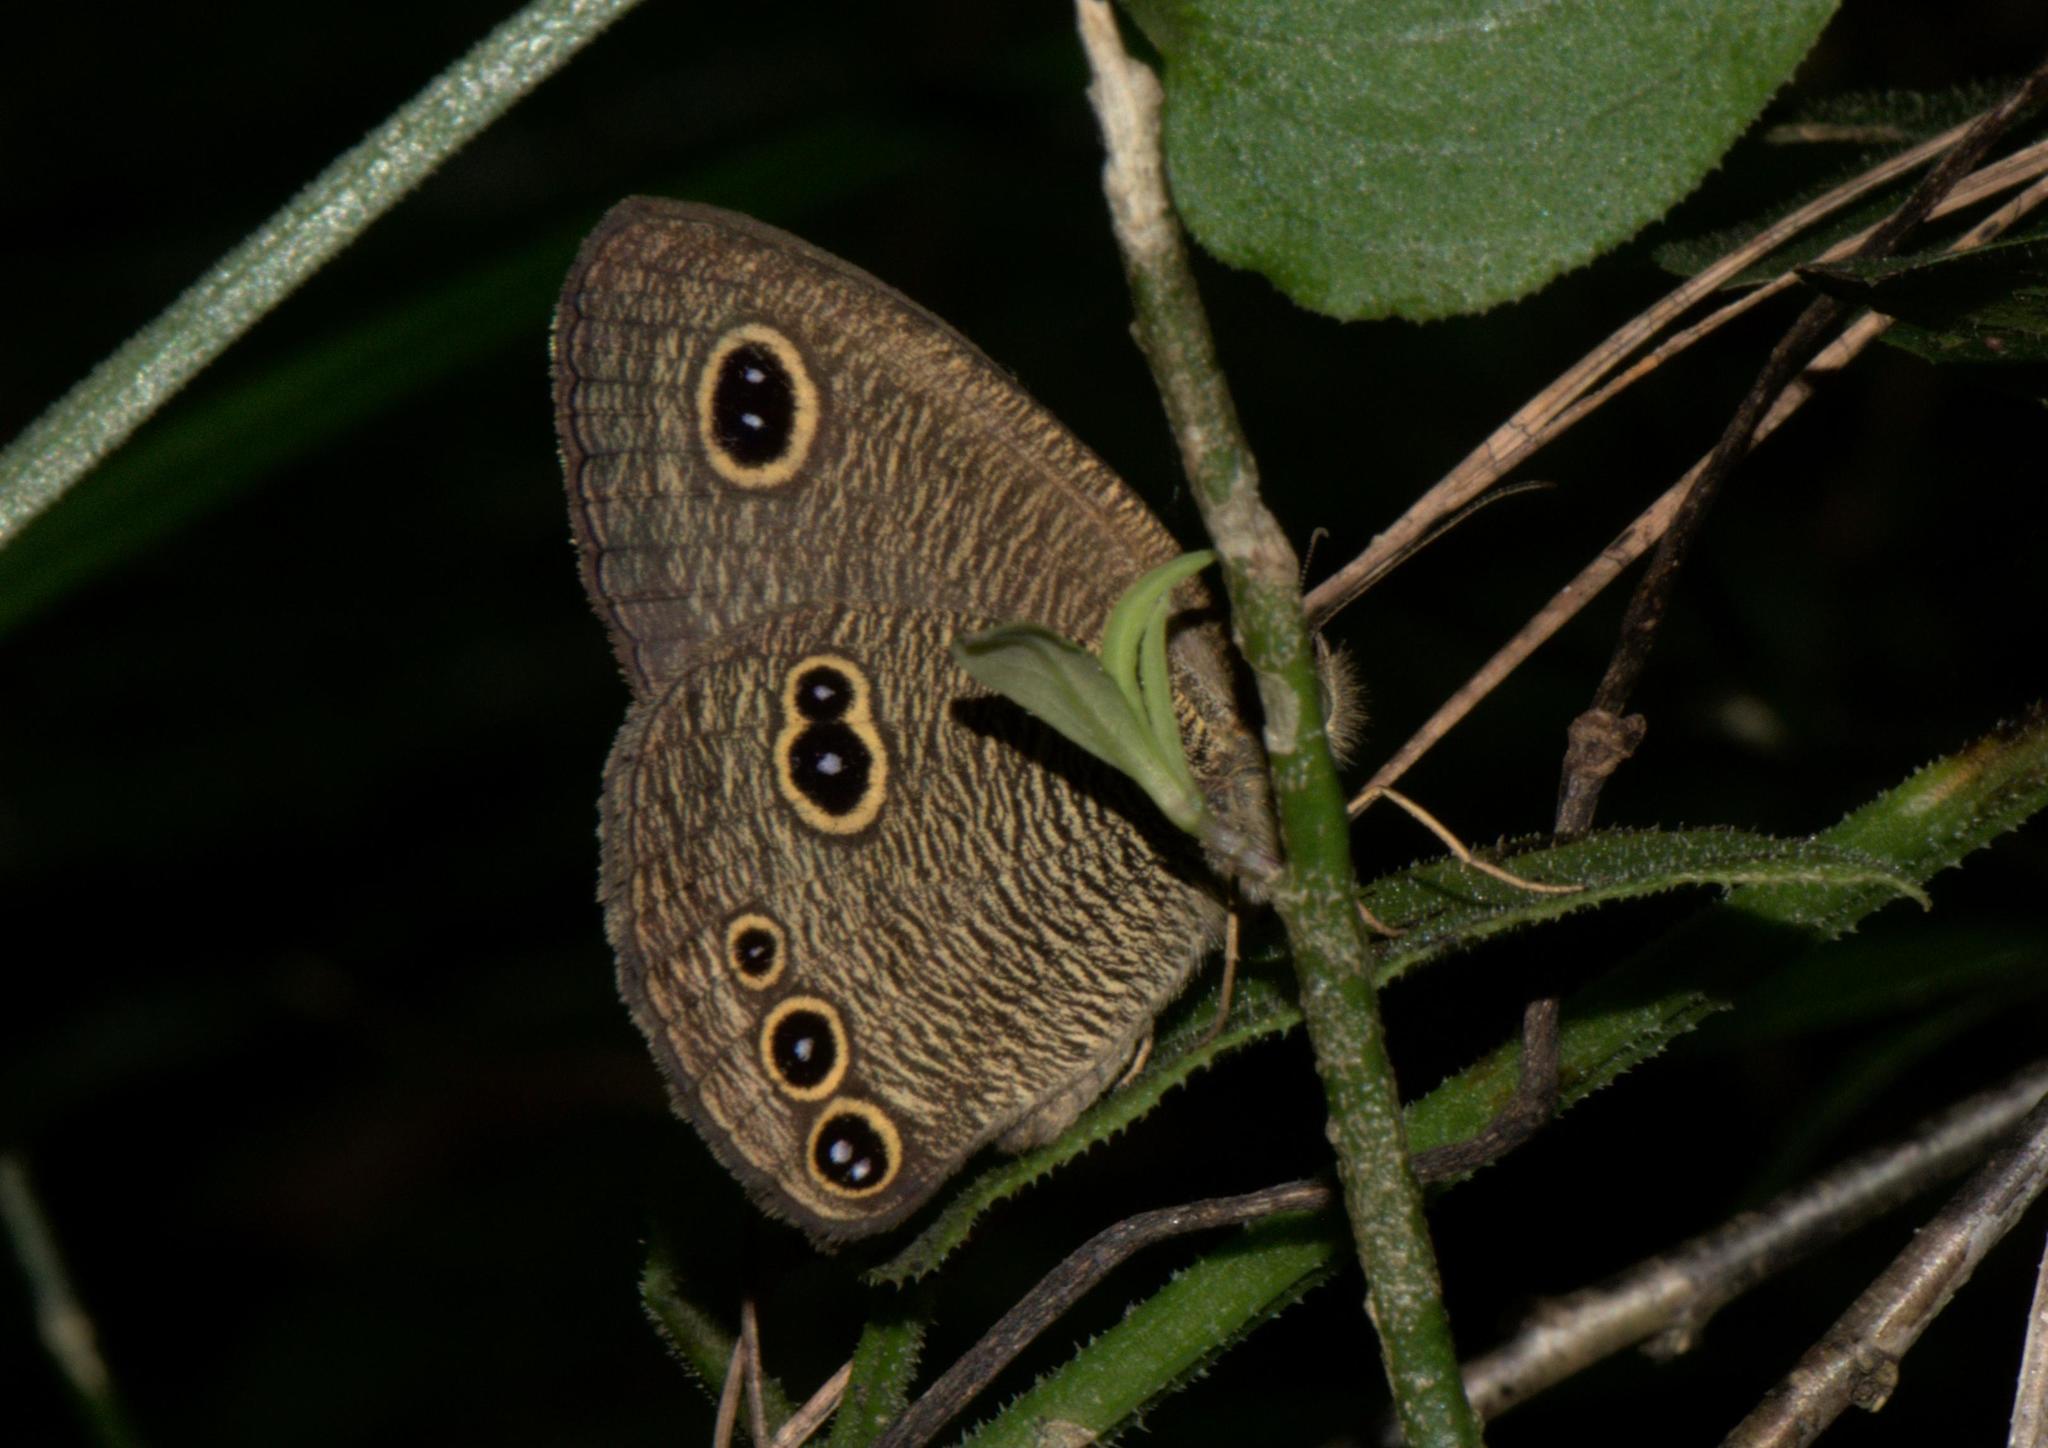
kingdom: Animalia
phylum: Arthropoda
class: Insecta
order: Lepidoptera
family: Nymphalidae
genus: Ypthima
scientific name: Ypthima nikaea
